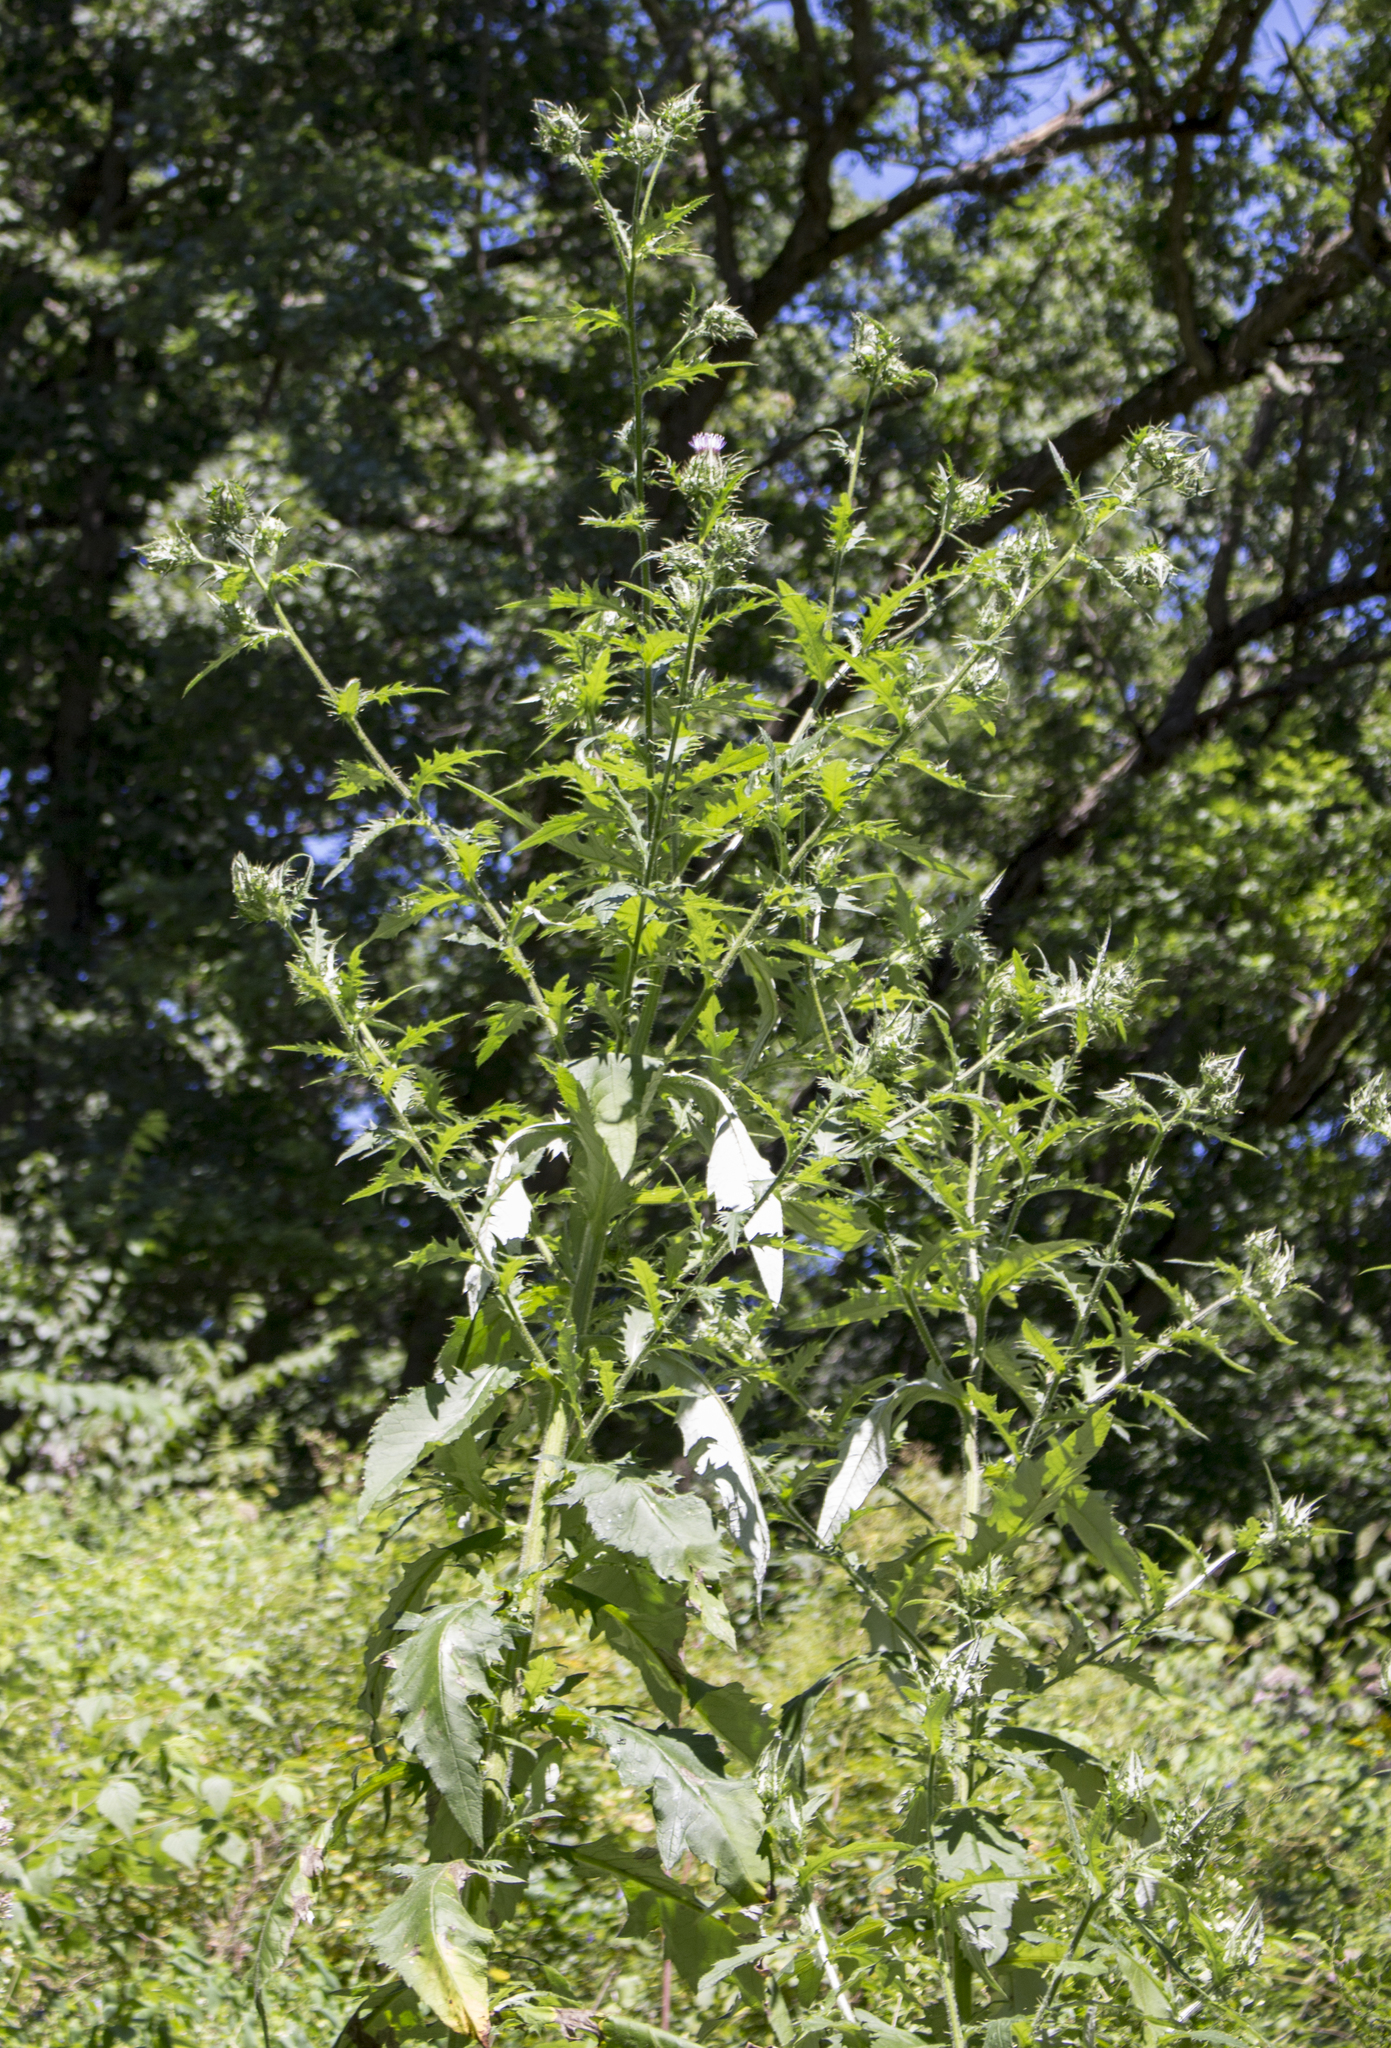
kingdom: Plantae
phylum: Tracheophyta
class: Magnoliopsida
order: Asterales
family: Asteraceae
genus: Cirsium
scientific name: Cirsium altissimum
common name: Roadside thistle
